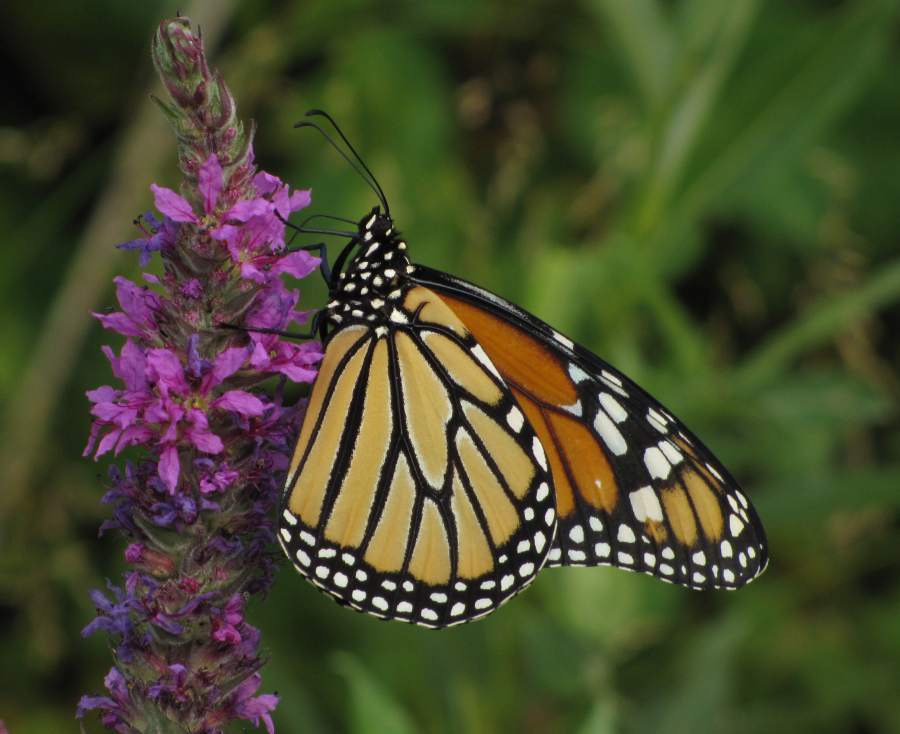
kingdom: Animalia
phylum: Arthropoda
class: Insecta
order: Lepidoptera
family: Nymphalidae
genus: Danaus
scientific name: Danaus plexippus
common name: Monarch
